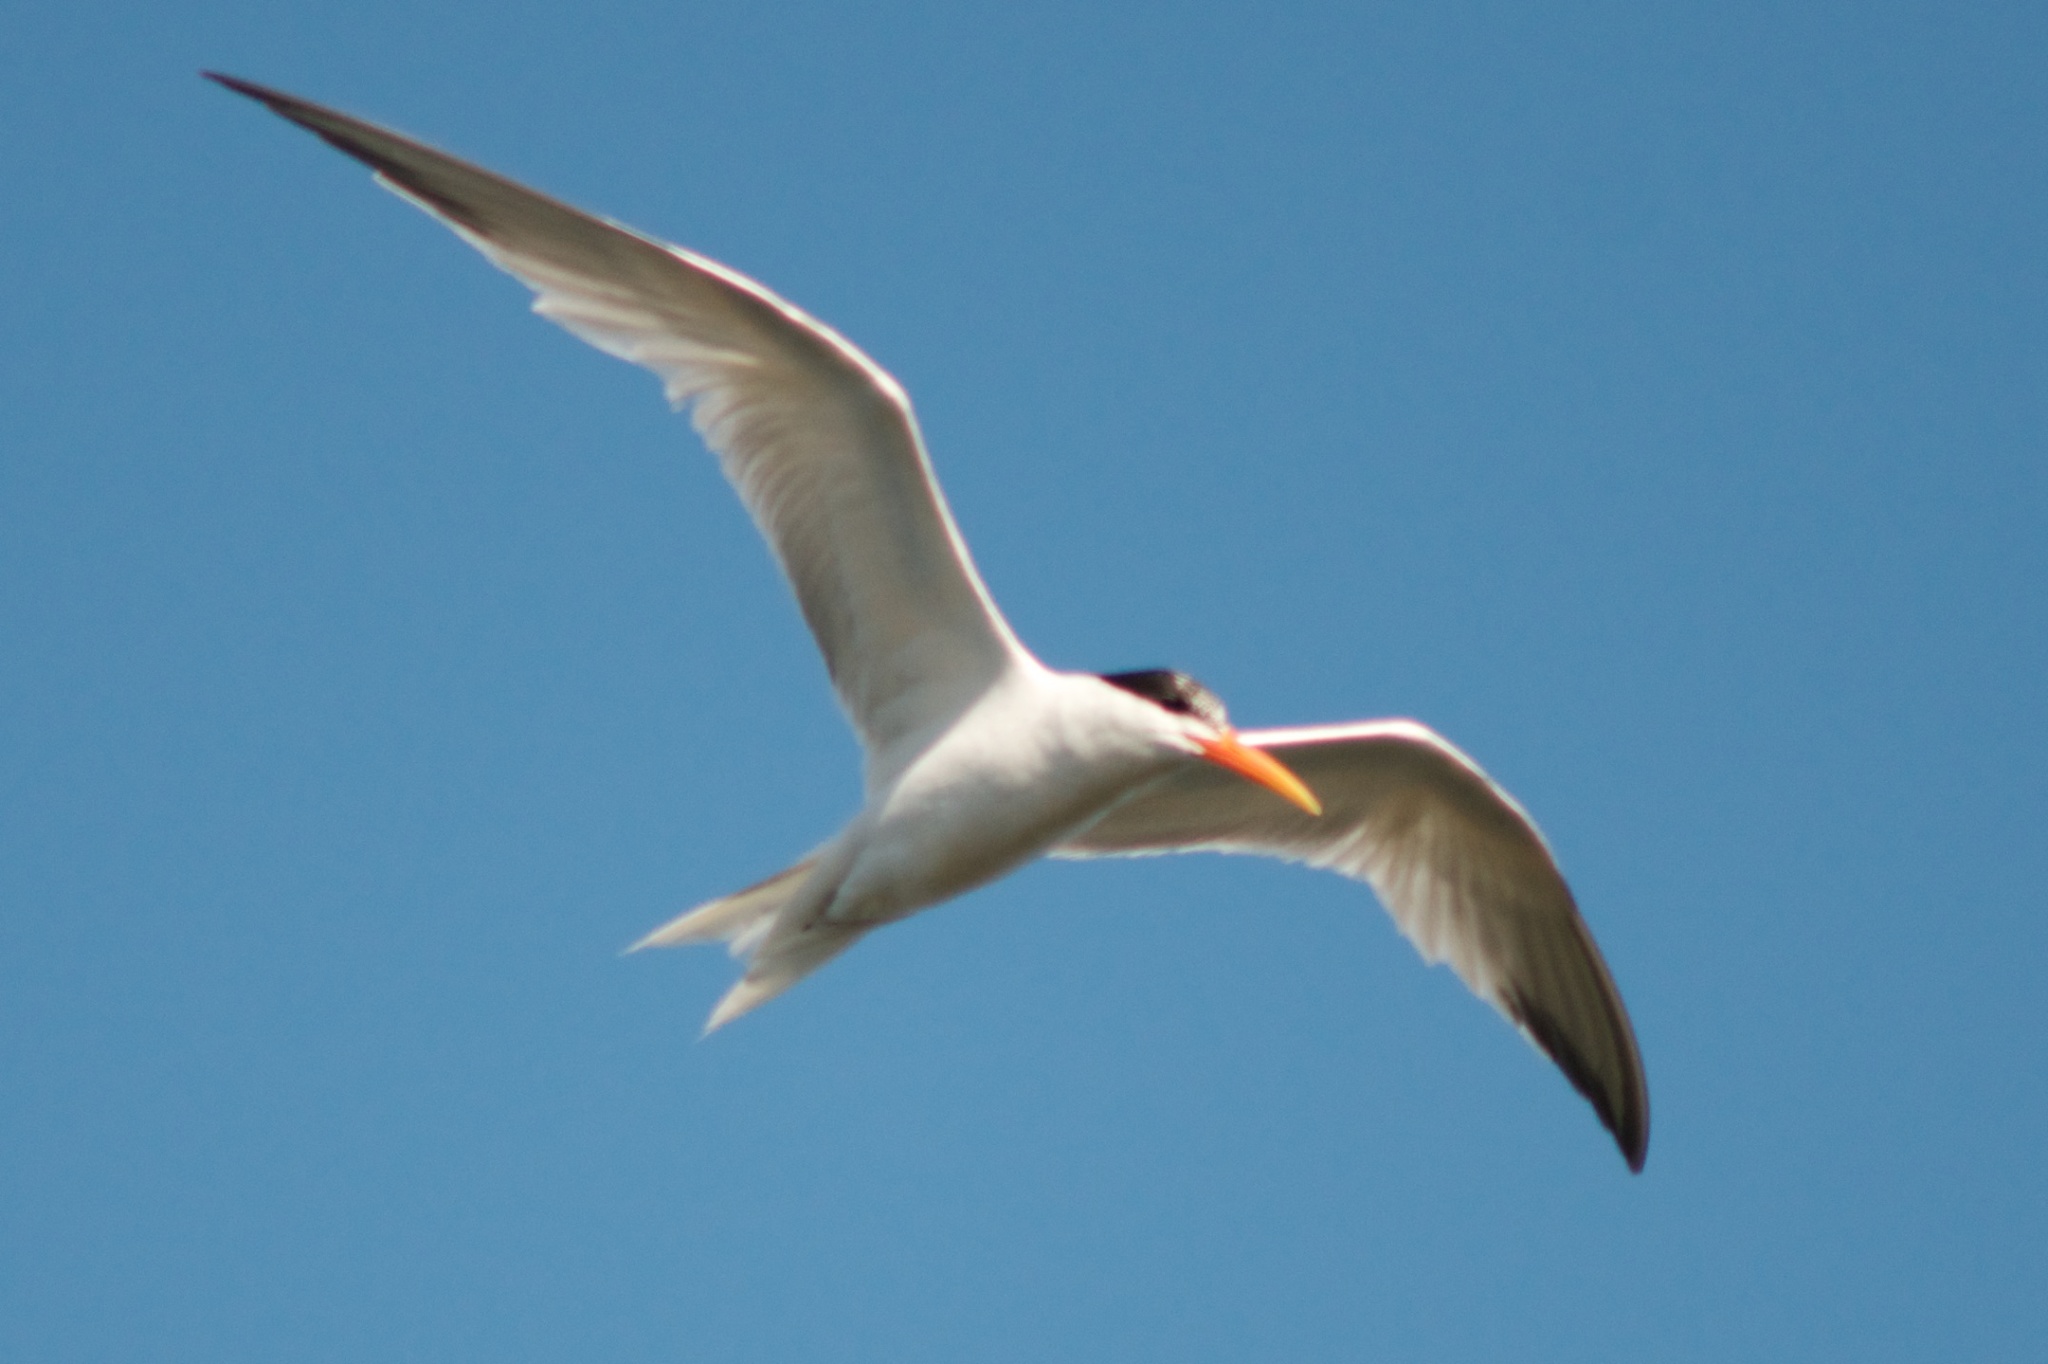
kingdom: Animalia
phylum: Chordata
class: Aves
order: Charadriiformes
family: Laridae
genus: Thalasseus
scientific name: Thalasseus elegans
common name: Elegant tern
